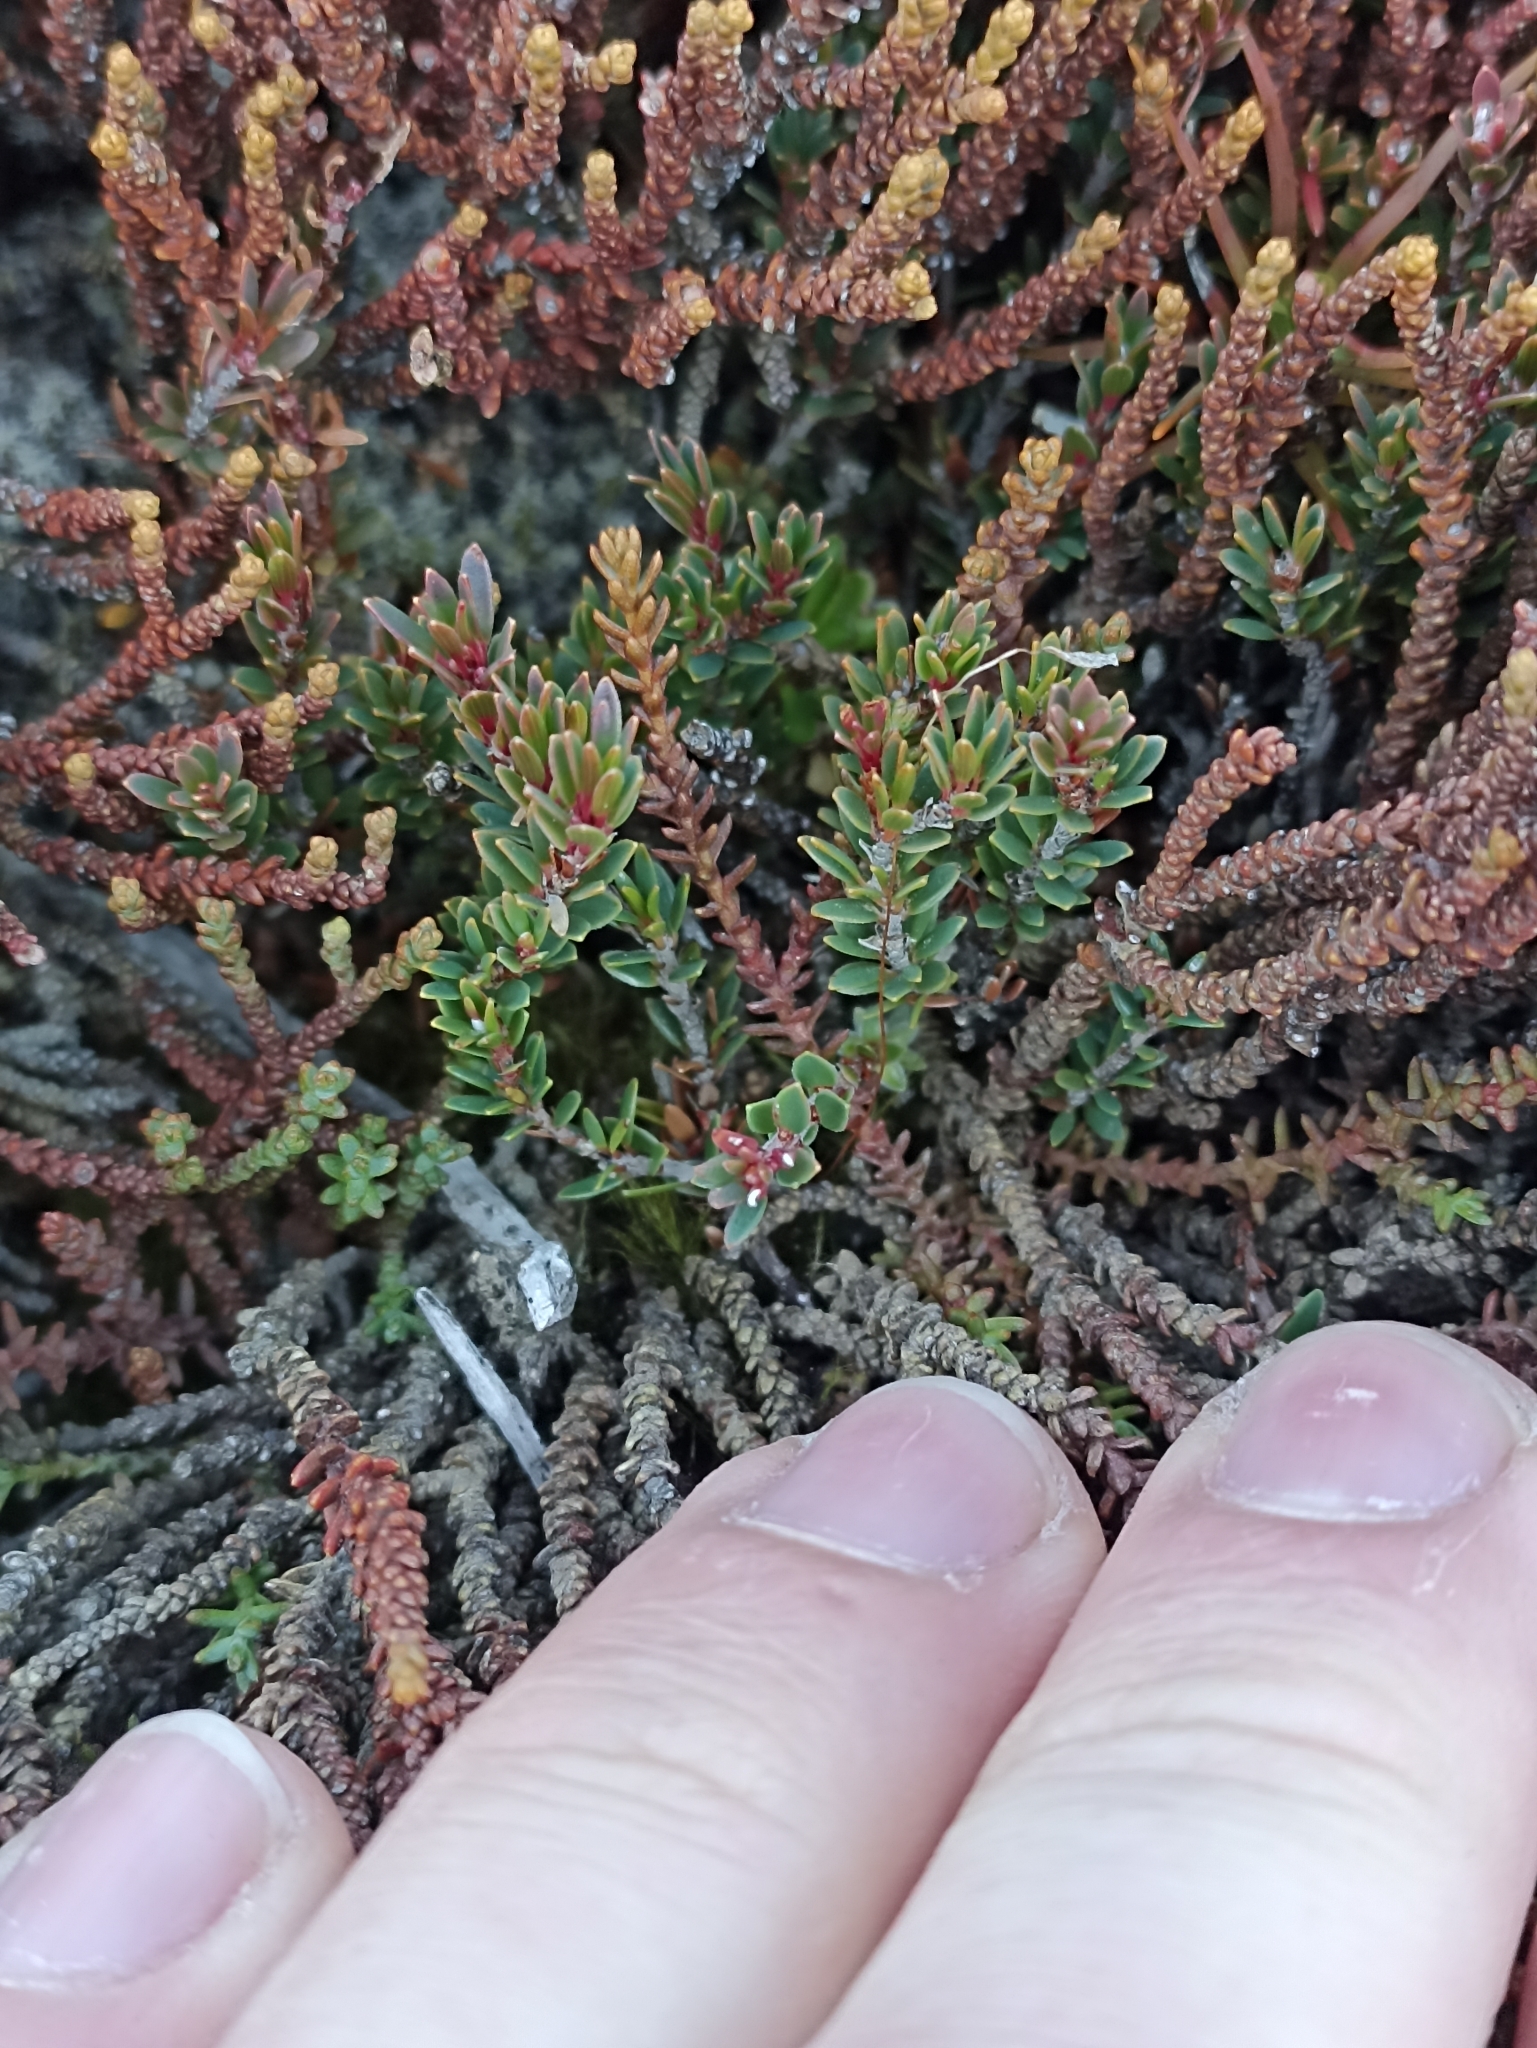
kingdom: Plantae
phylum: Tracheophyta
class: Magnoliopsida
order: Ericales
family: Ericaceae
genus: Pentachondra
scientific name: Pentachondra pumila
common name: Carpet-heath
